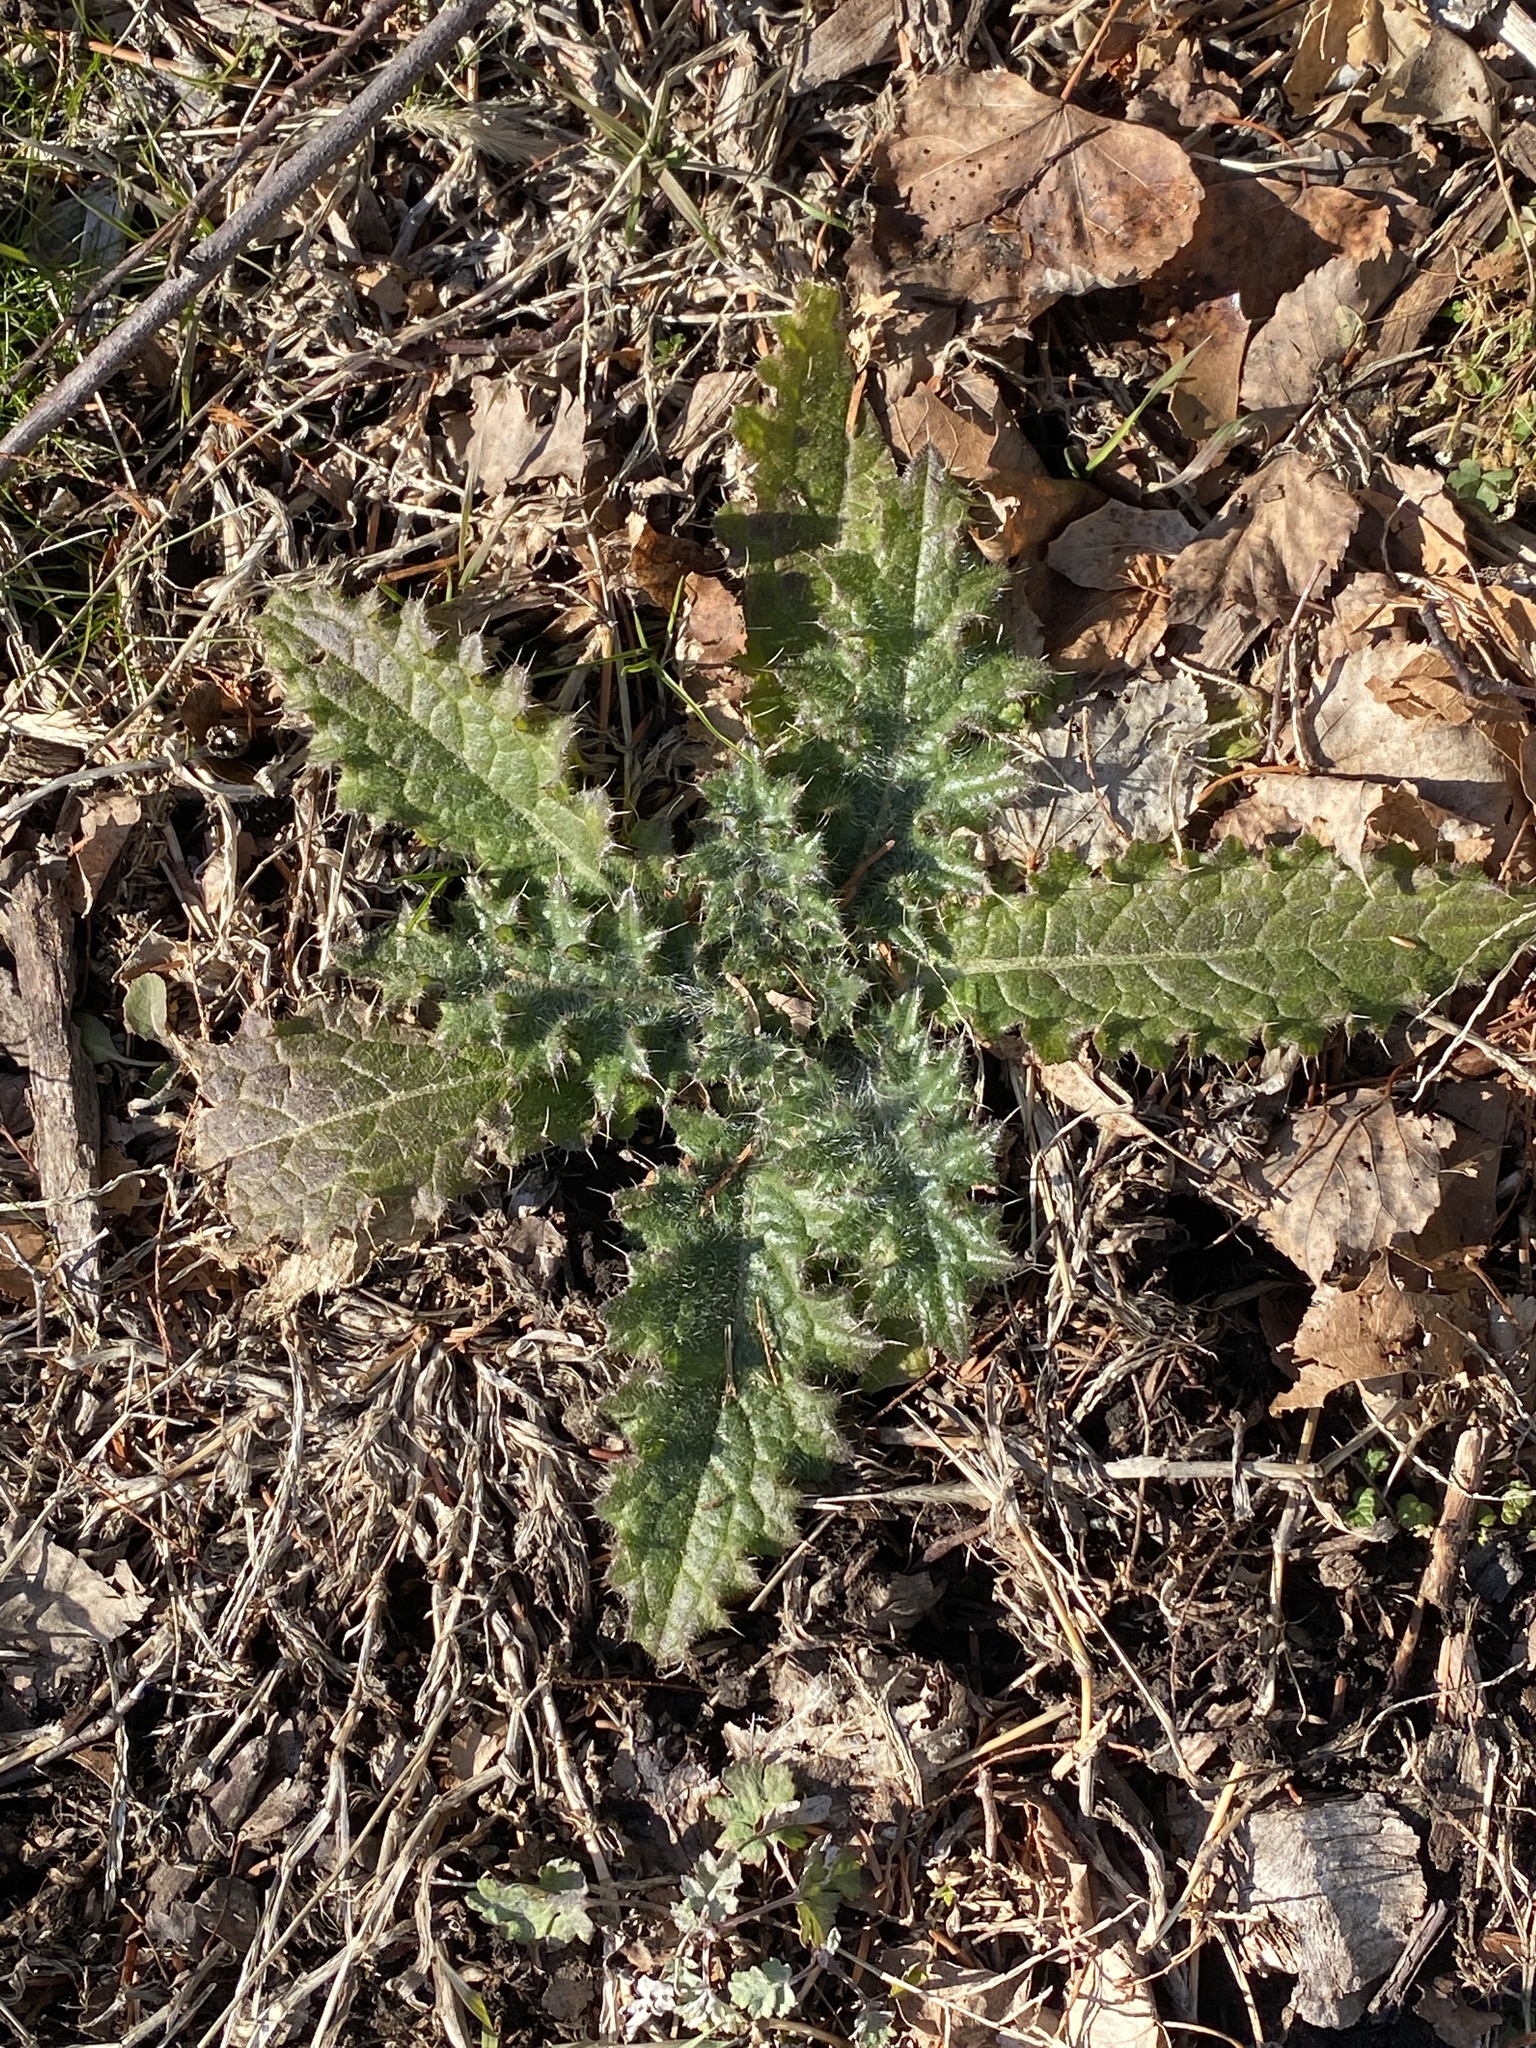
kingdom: Plantae
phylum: Tracheophyta
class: Magnoliopsida
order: Asterales
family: Asteraceae
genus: Cirsium
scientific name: Cirsium vulgare
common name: Bull thistle
